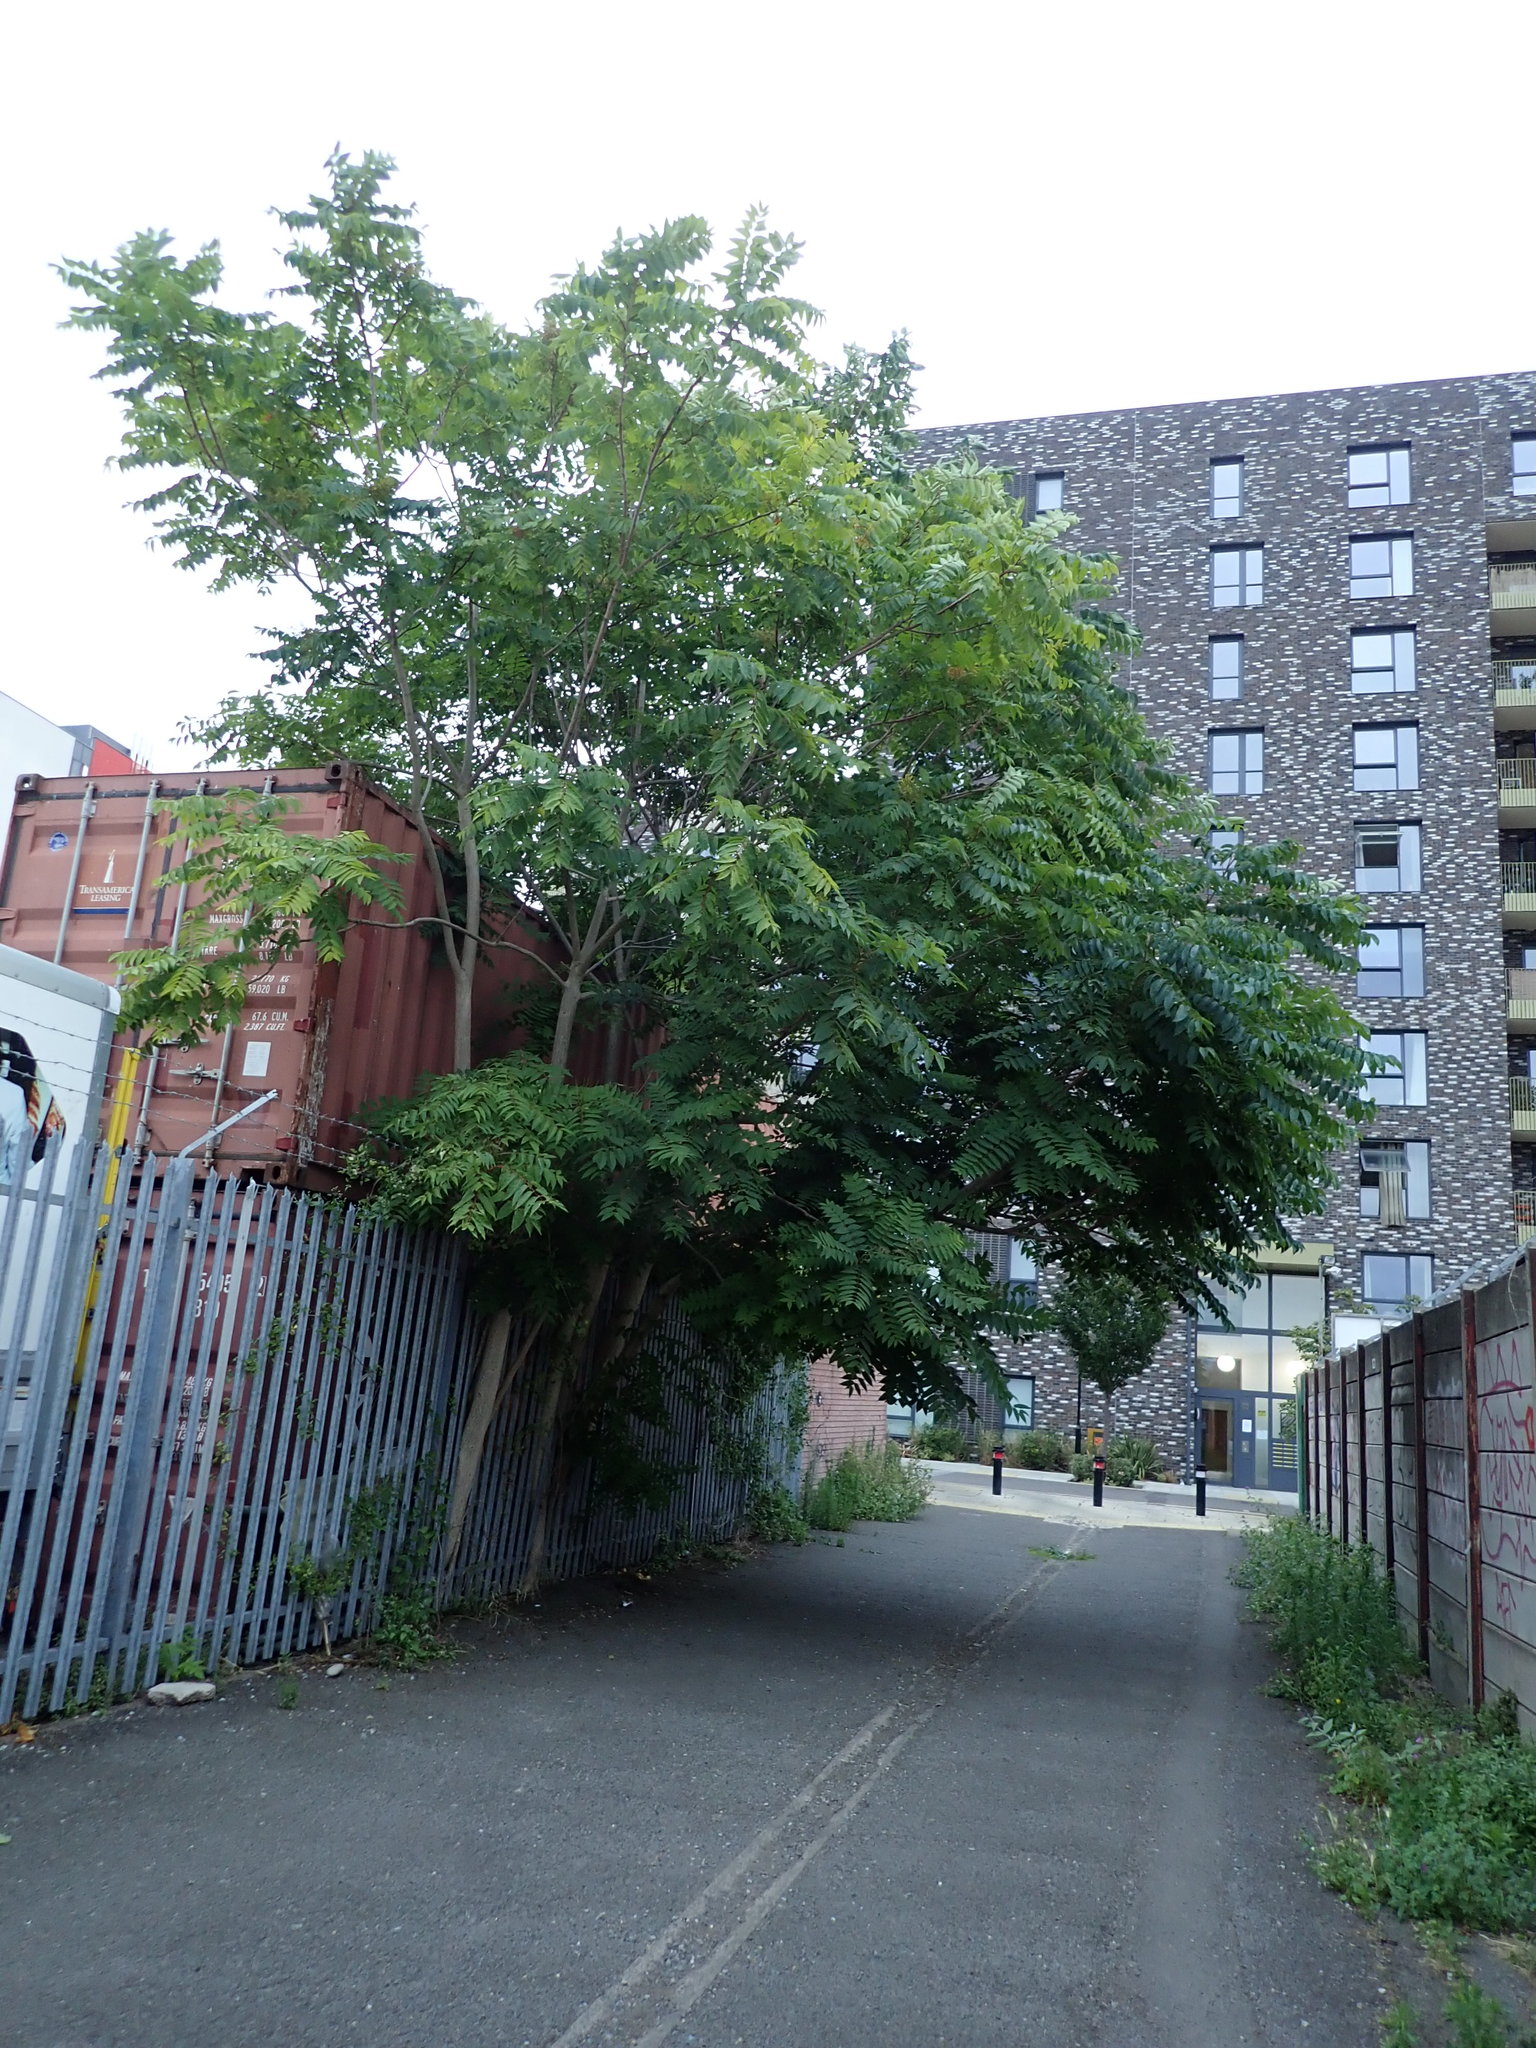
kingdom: Plantae
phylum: Tracheophyta
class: Magnoliopsida
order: Sapindales
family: Simaroubaceae
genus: Ailanthus
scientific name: Ailanthus altissima
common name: Tree-of-heaven
